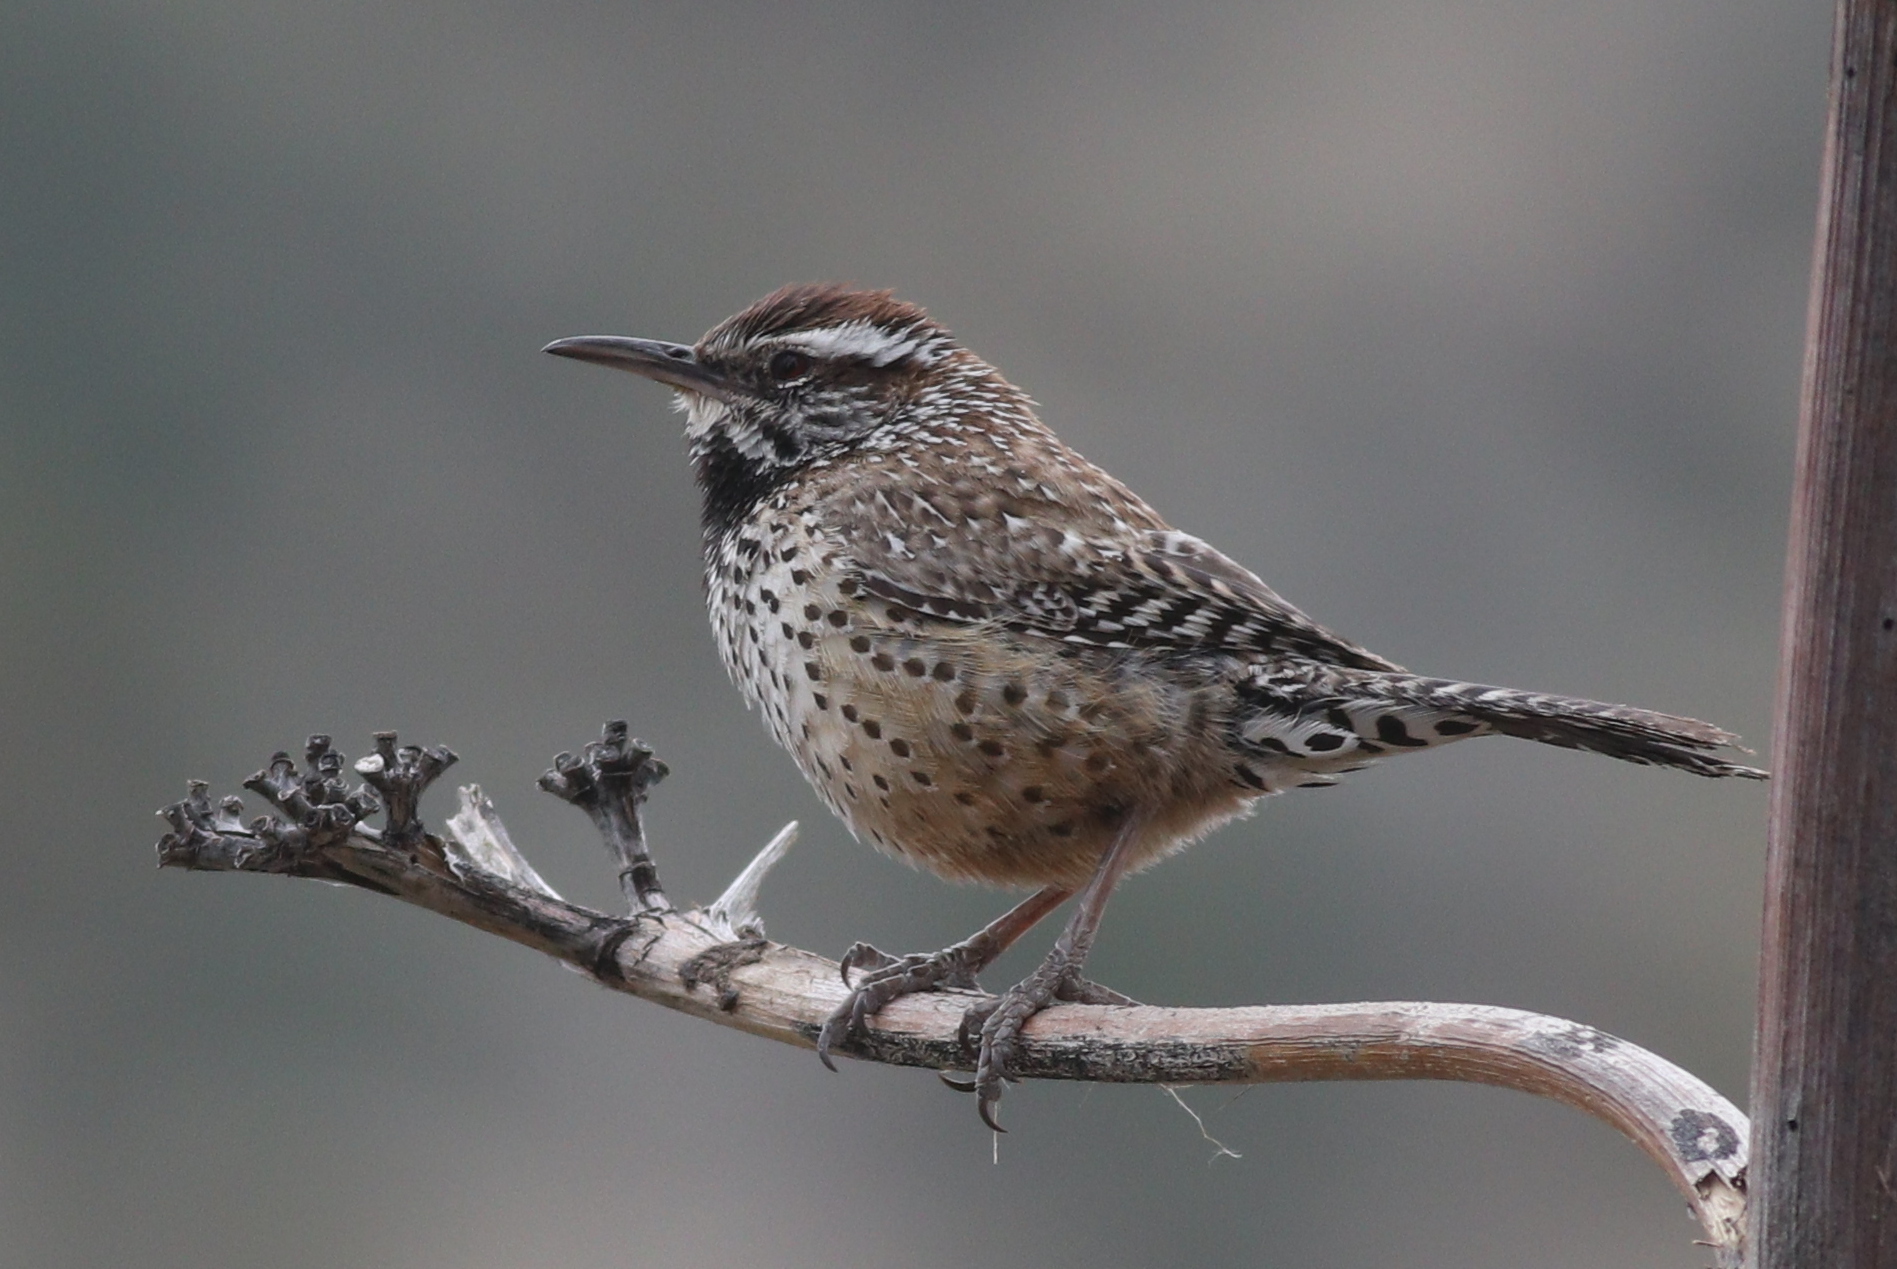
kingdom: Animalia
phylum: Chordata
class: Aves
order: Passeriformes
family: Troglodytidae
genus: Campylorhynchus
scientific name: Campylorhynchus brunneicapillus
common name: Cactus wren
